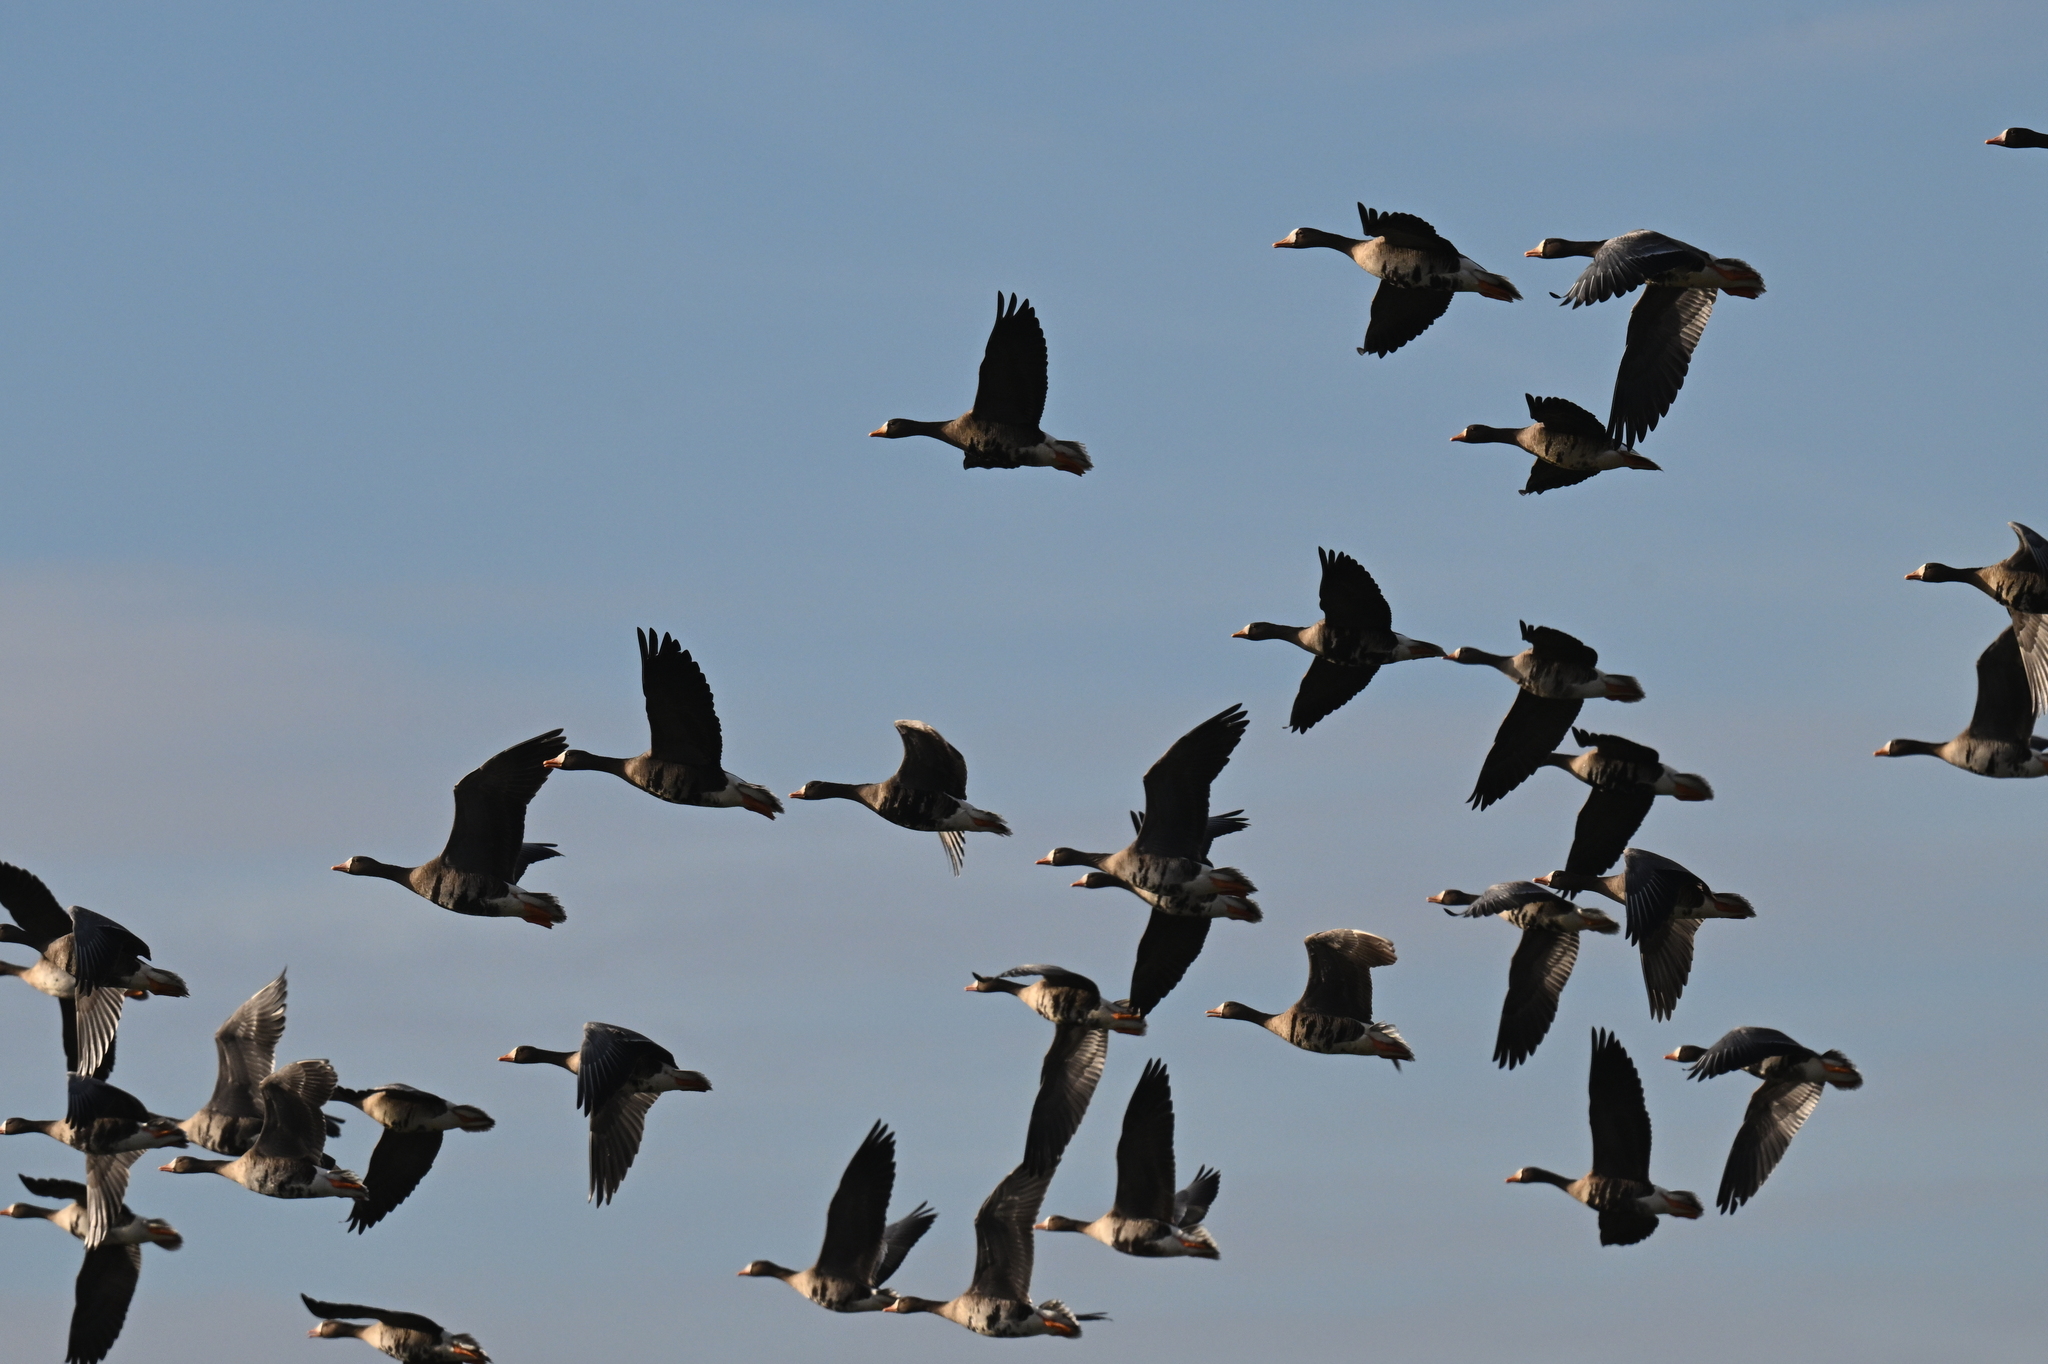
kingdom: Animalia
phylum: Chordata
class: Aves
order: Anseriformes
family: Anatidae
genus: Anser
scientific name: Anser albifrons
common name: Greater white-fronted goose
